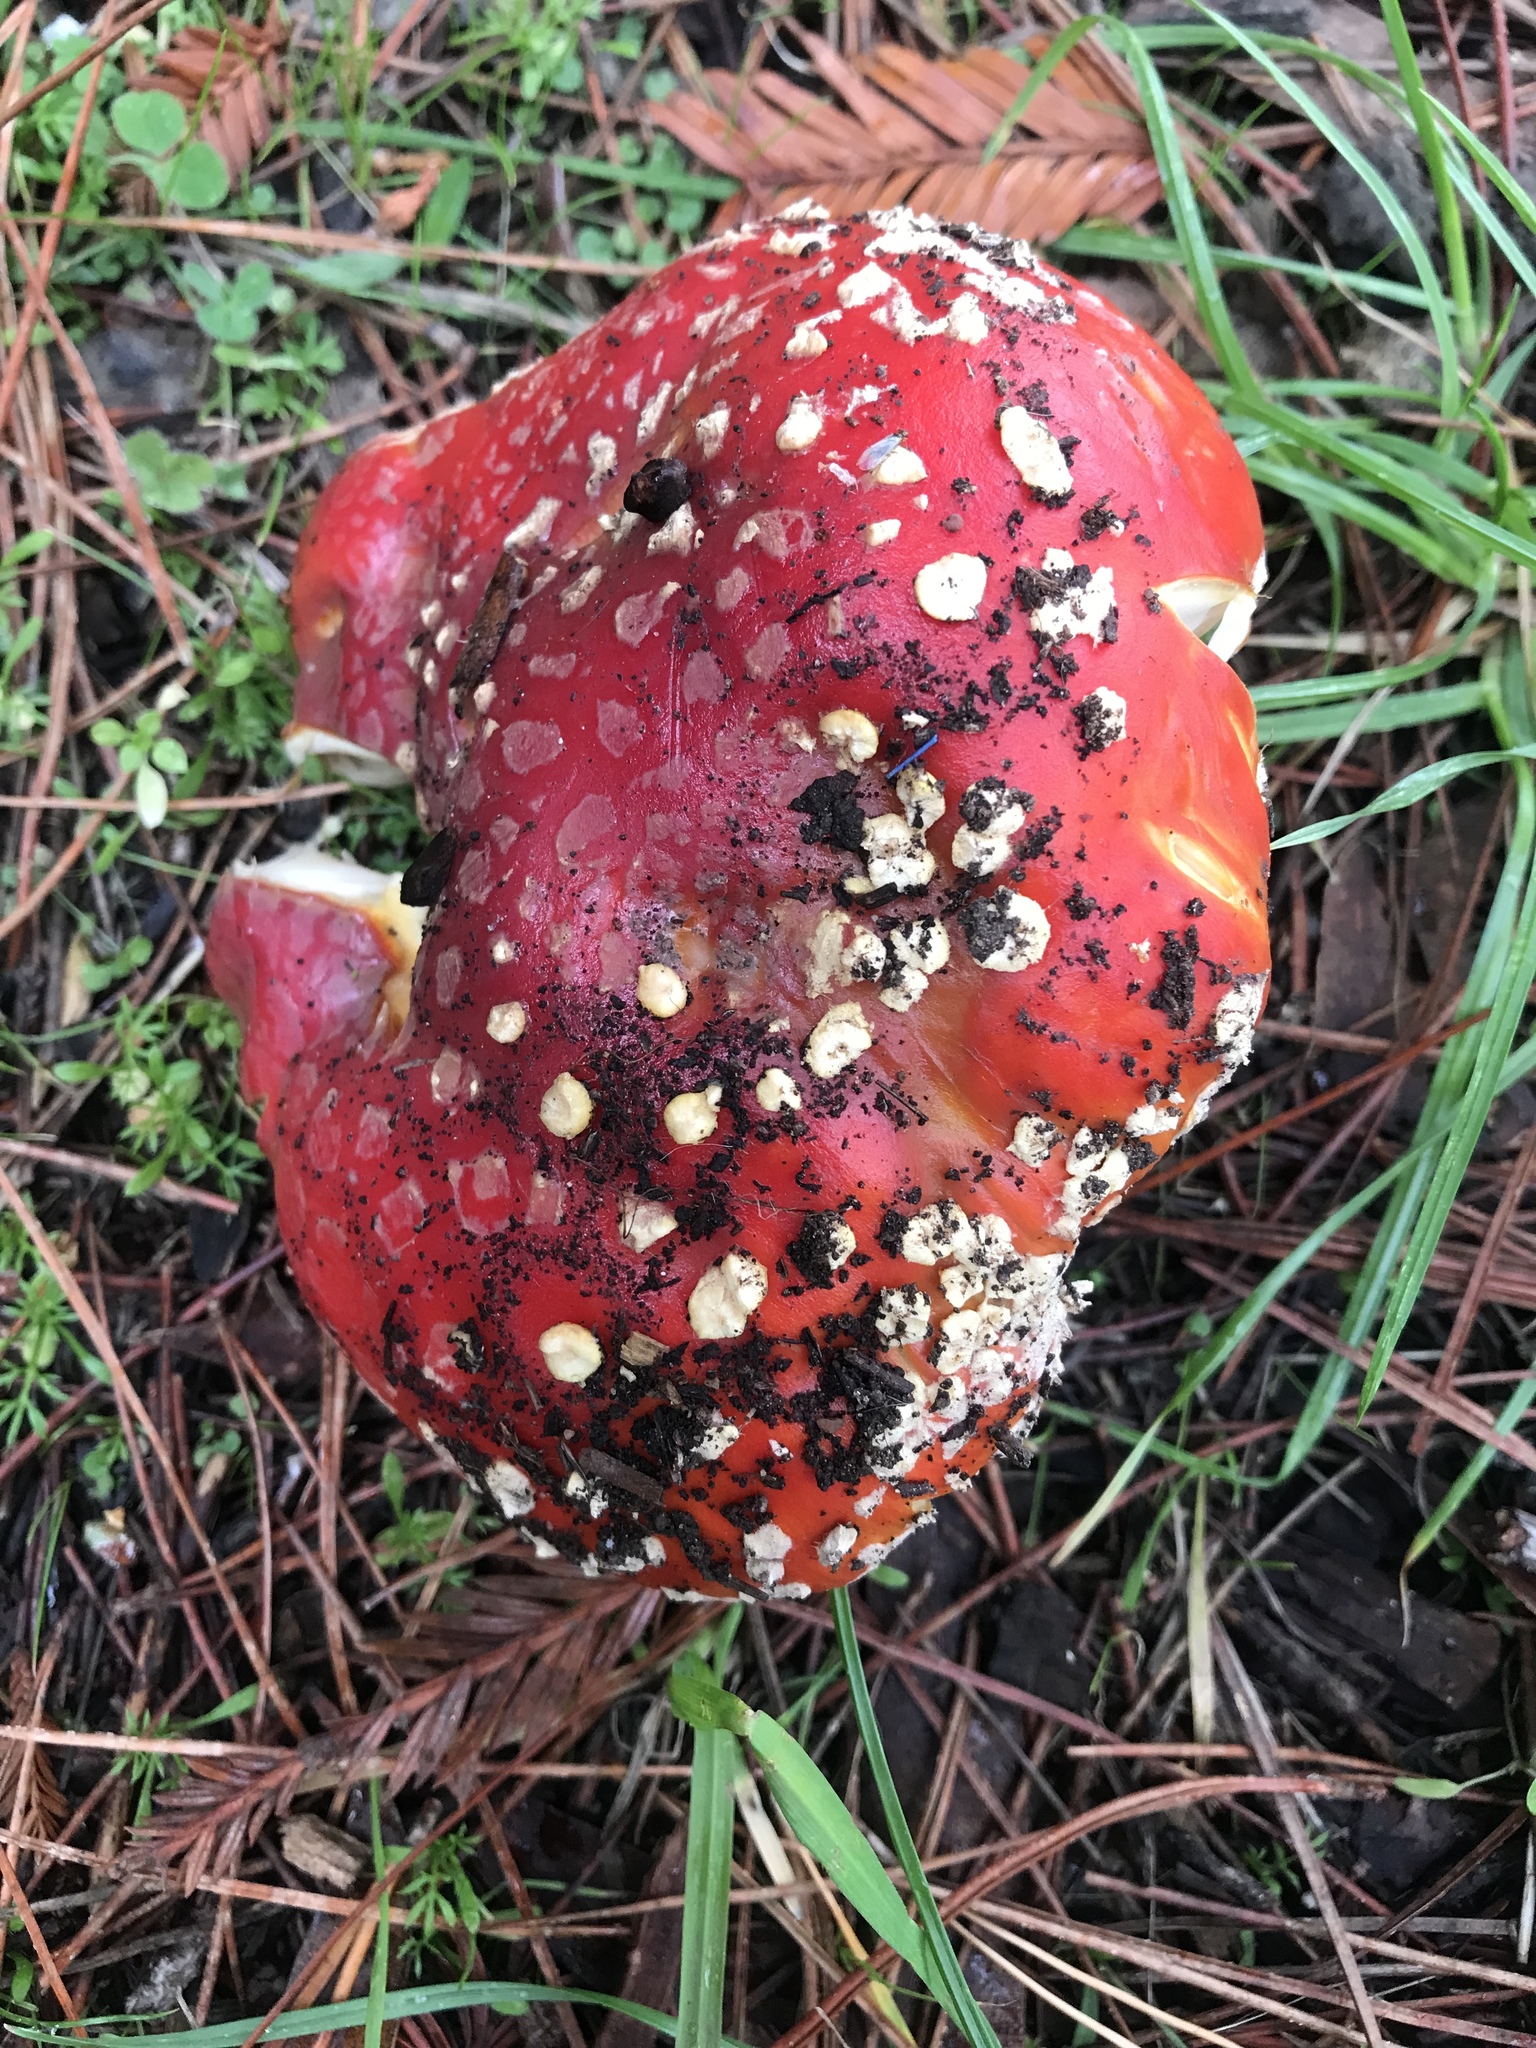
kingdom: Fungi
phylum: Basidiomycota
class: Agaricomycetes
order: Agaricales
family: Amanitaceae
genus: Amanita
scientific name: Amanita muscaria
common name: Fly agaric
